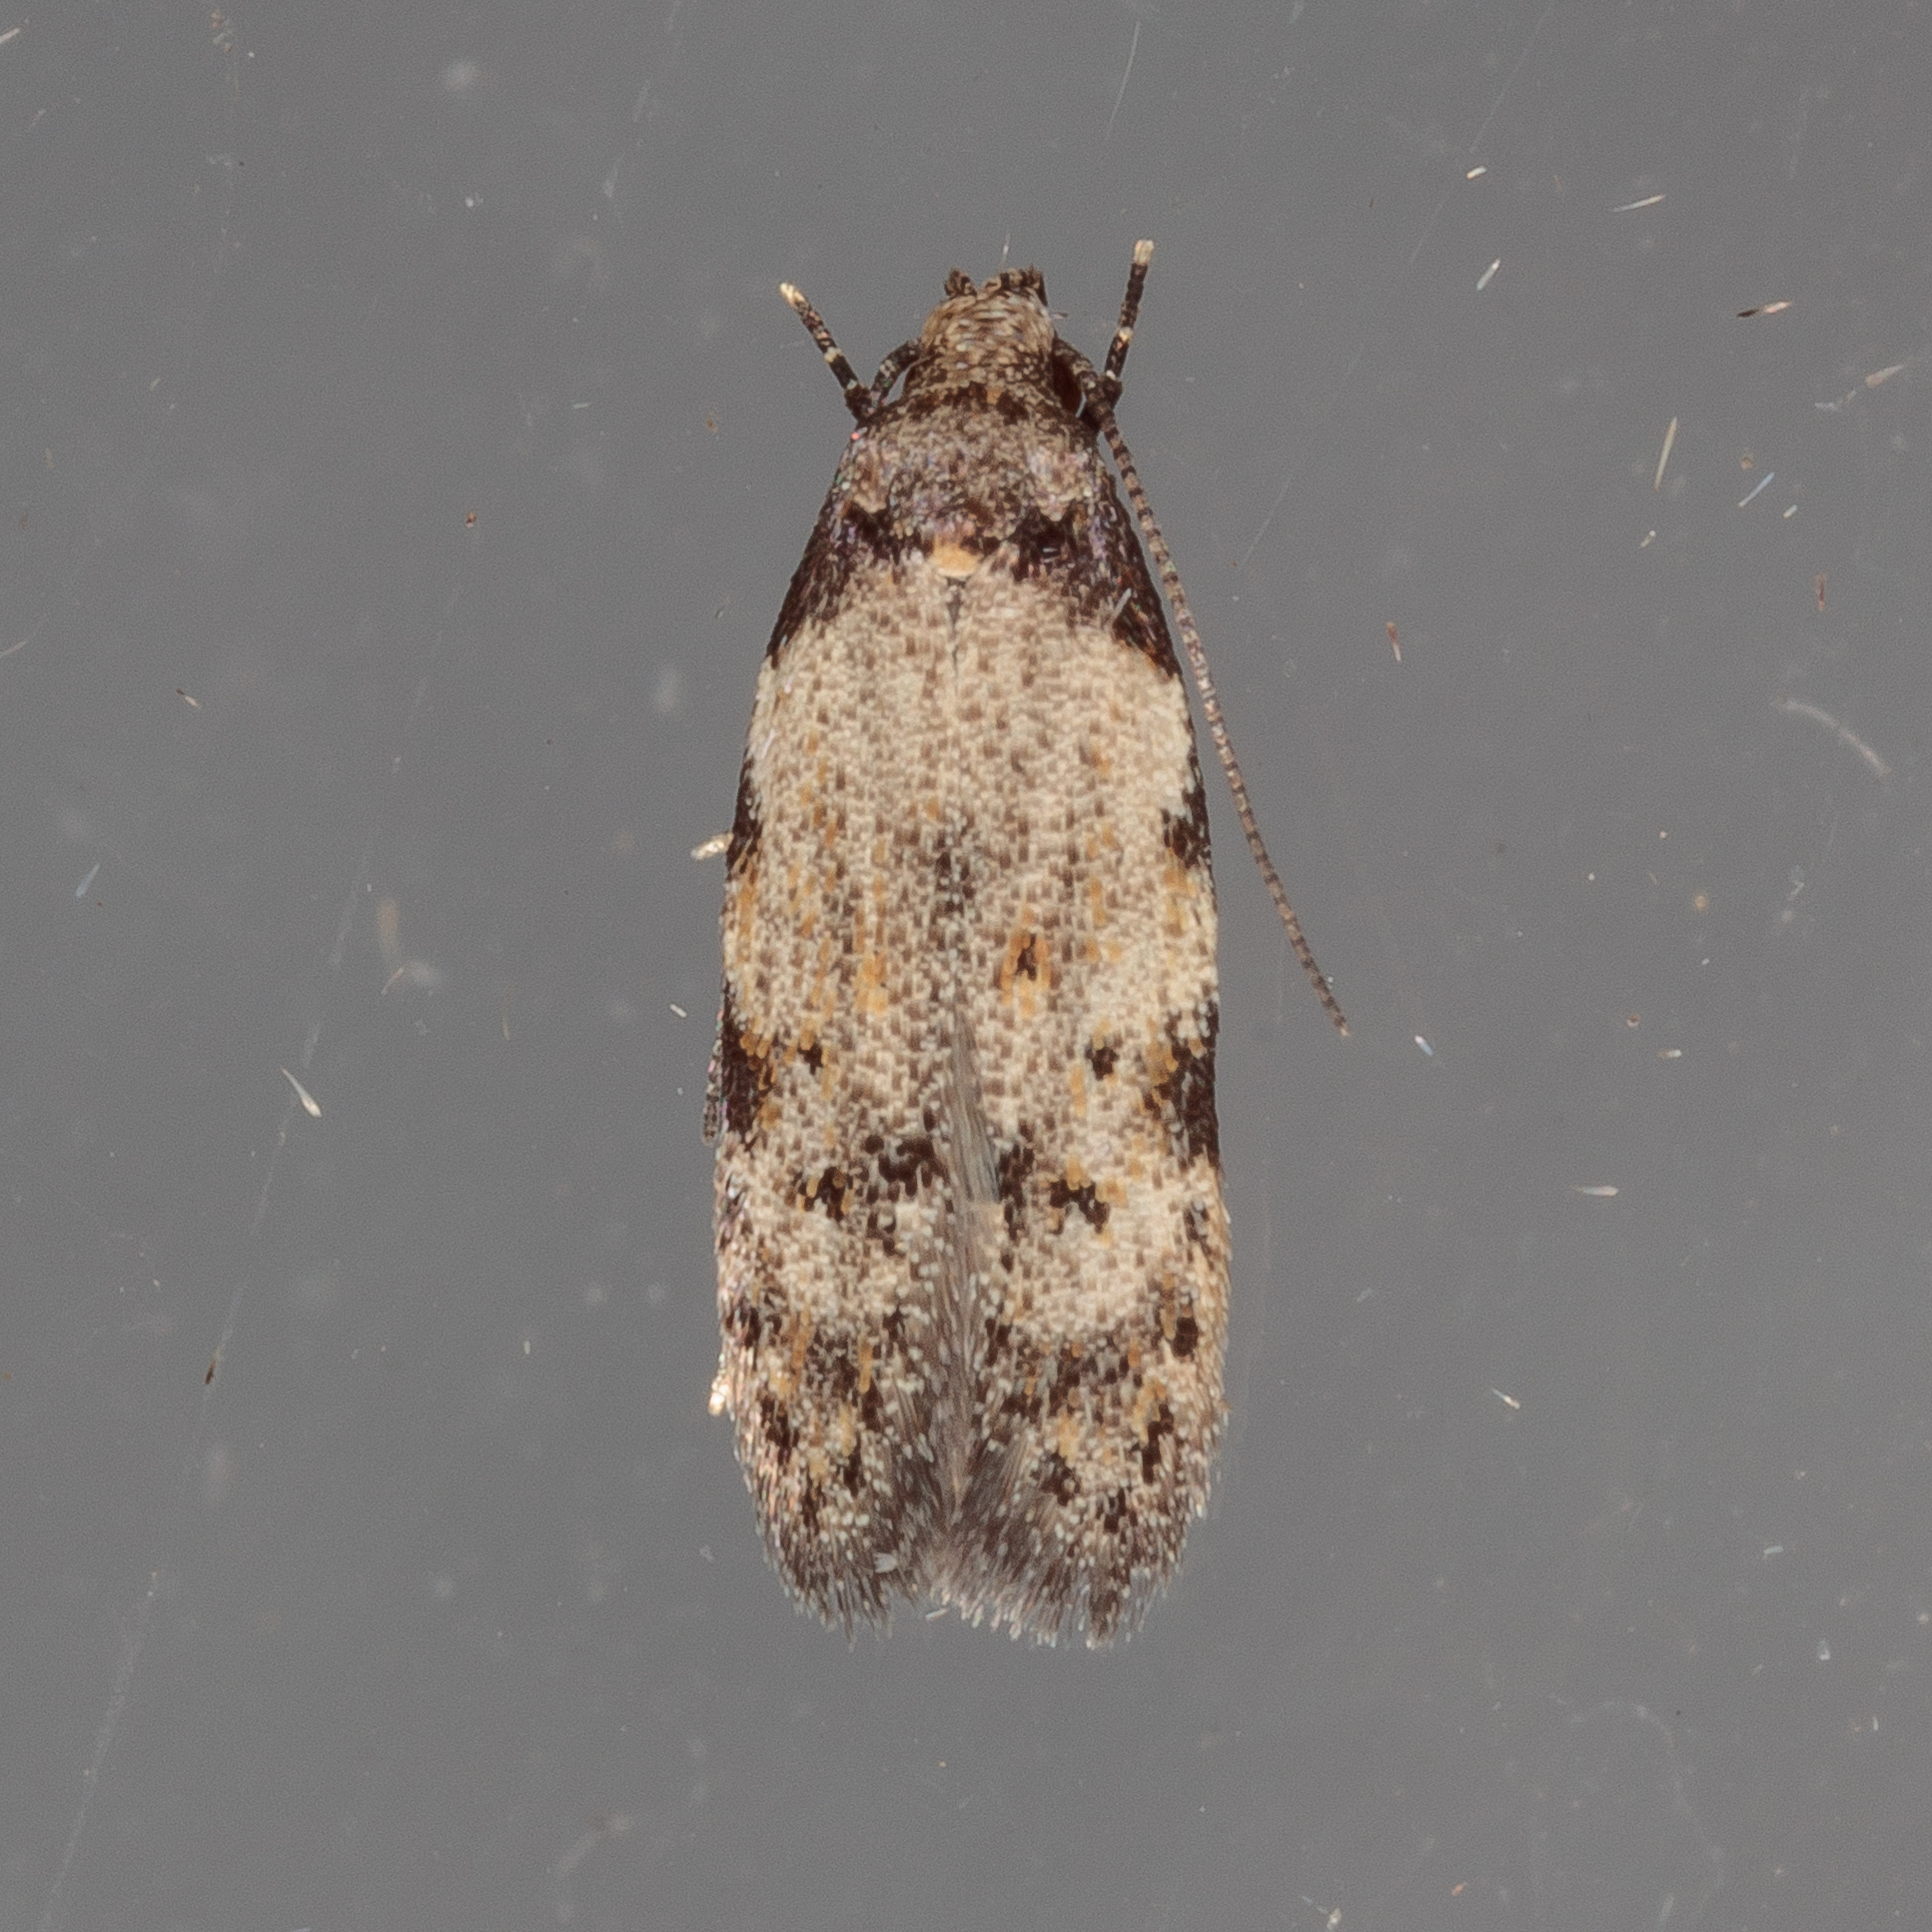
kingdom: Animalia
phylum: Arthropoda
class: Insecta
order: Lepidoptera
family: Autostichidae
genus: Taygete
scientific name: Taygete attributella
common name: Triangle-marked twirler moth
